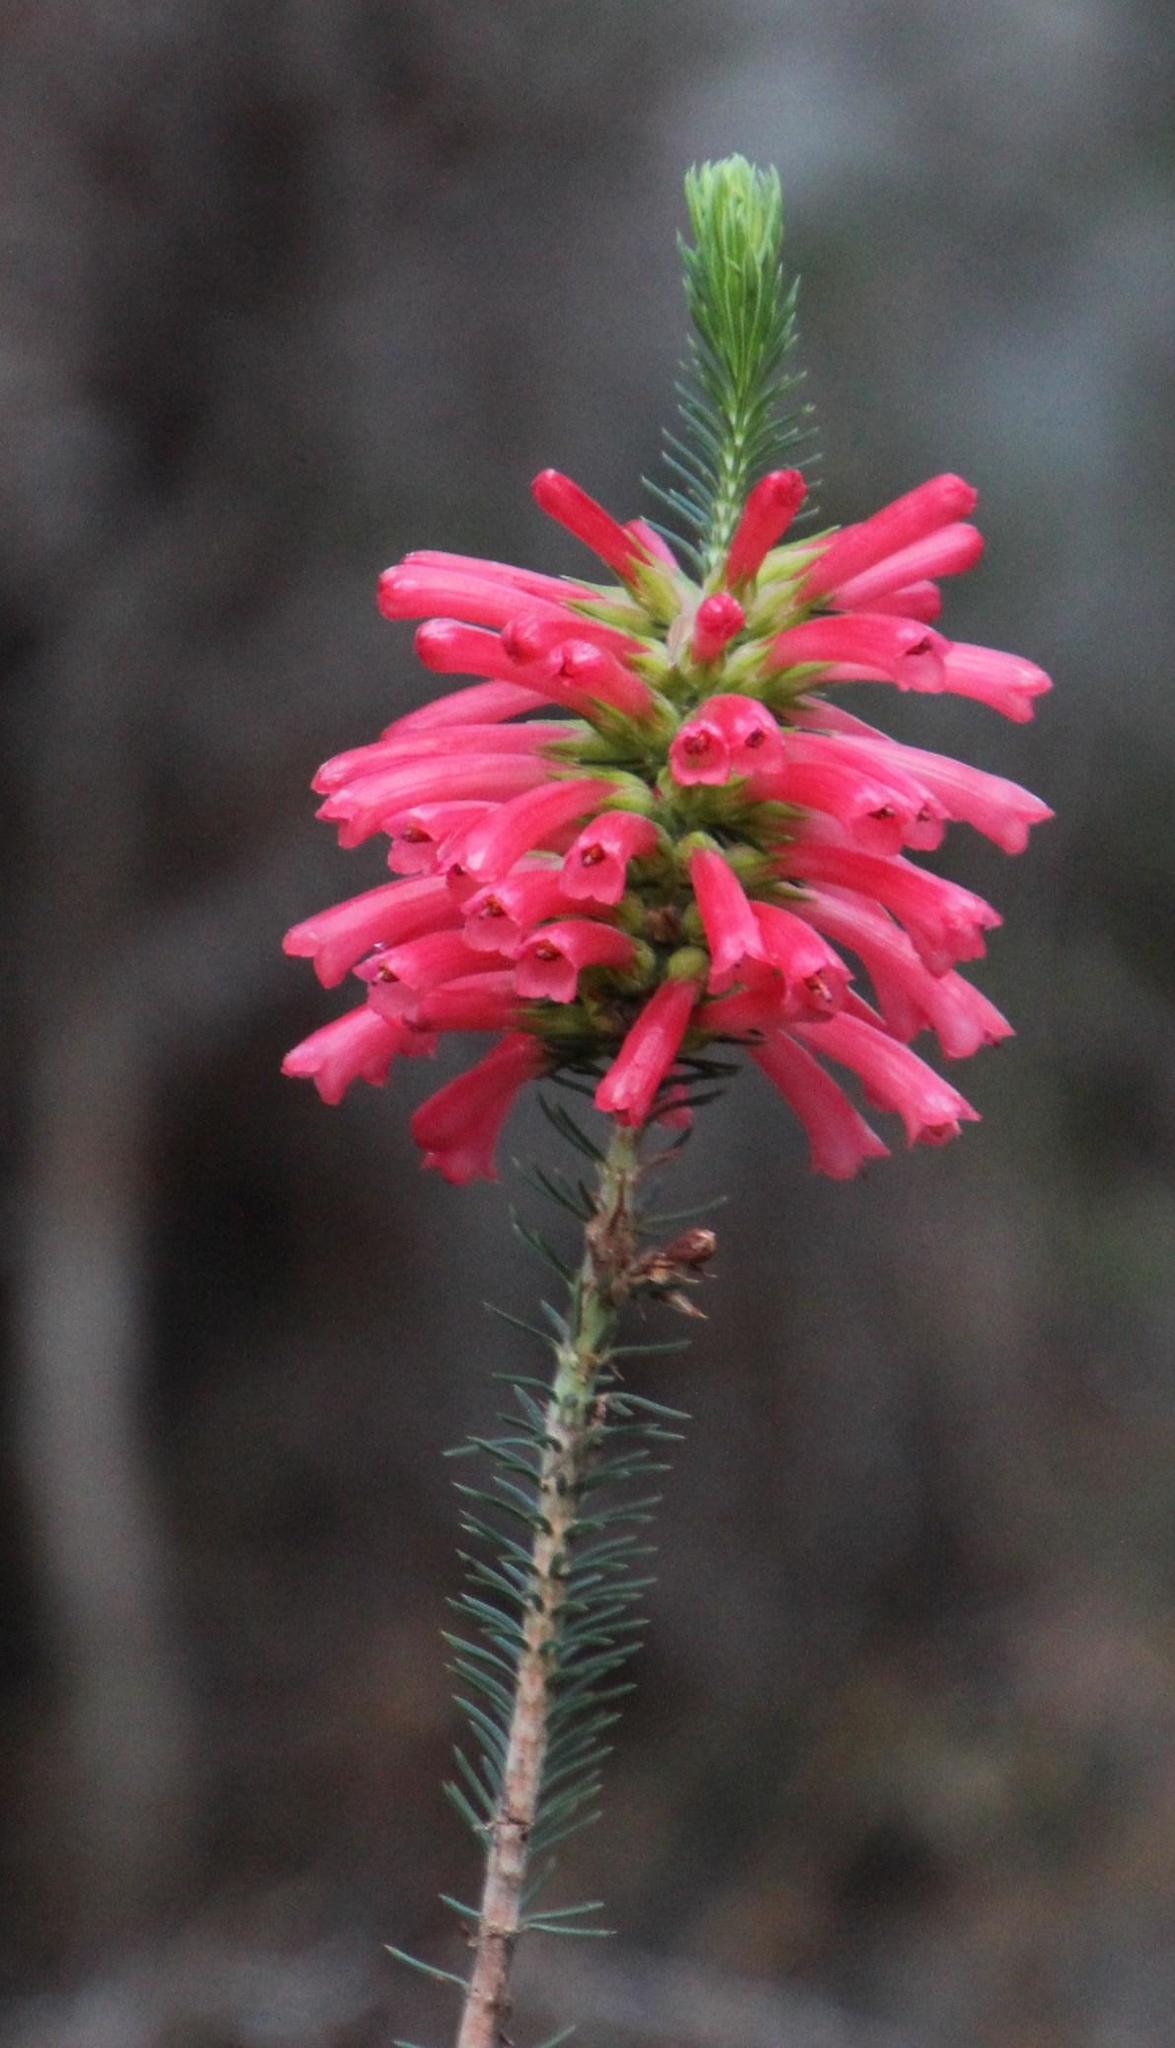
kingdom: Plantae
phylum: Tracheophyta
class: Magnoliopsida
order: Ericales
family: Ericaceae
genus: Erica
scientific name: Erica abietina
